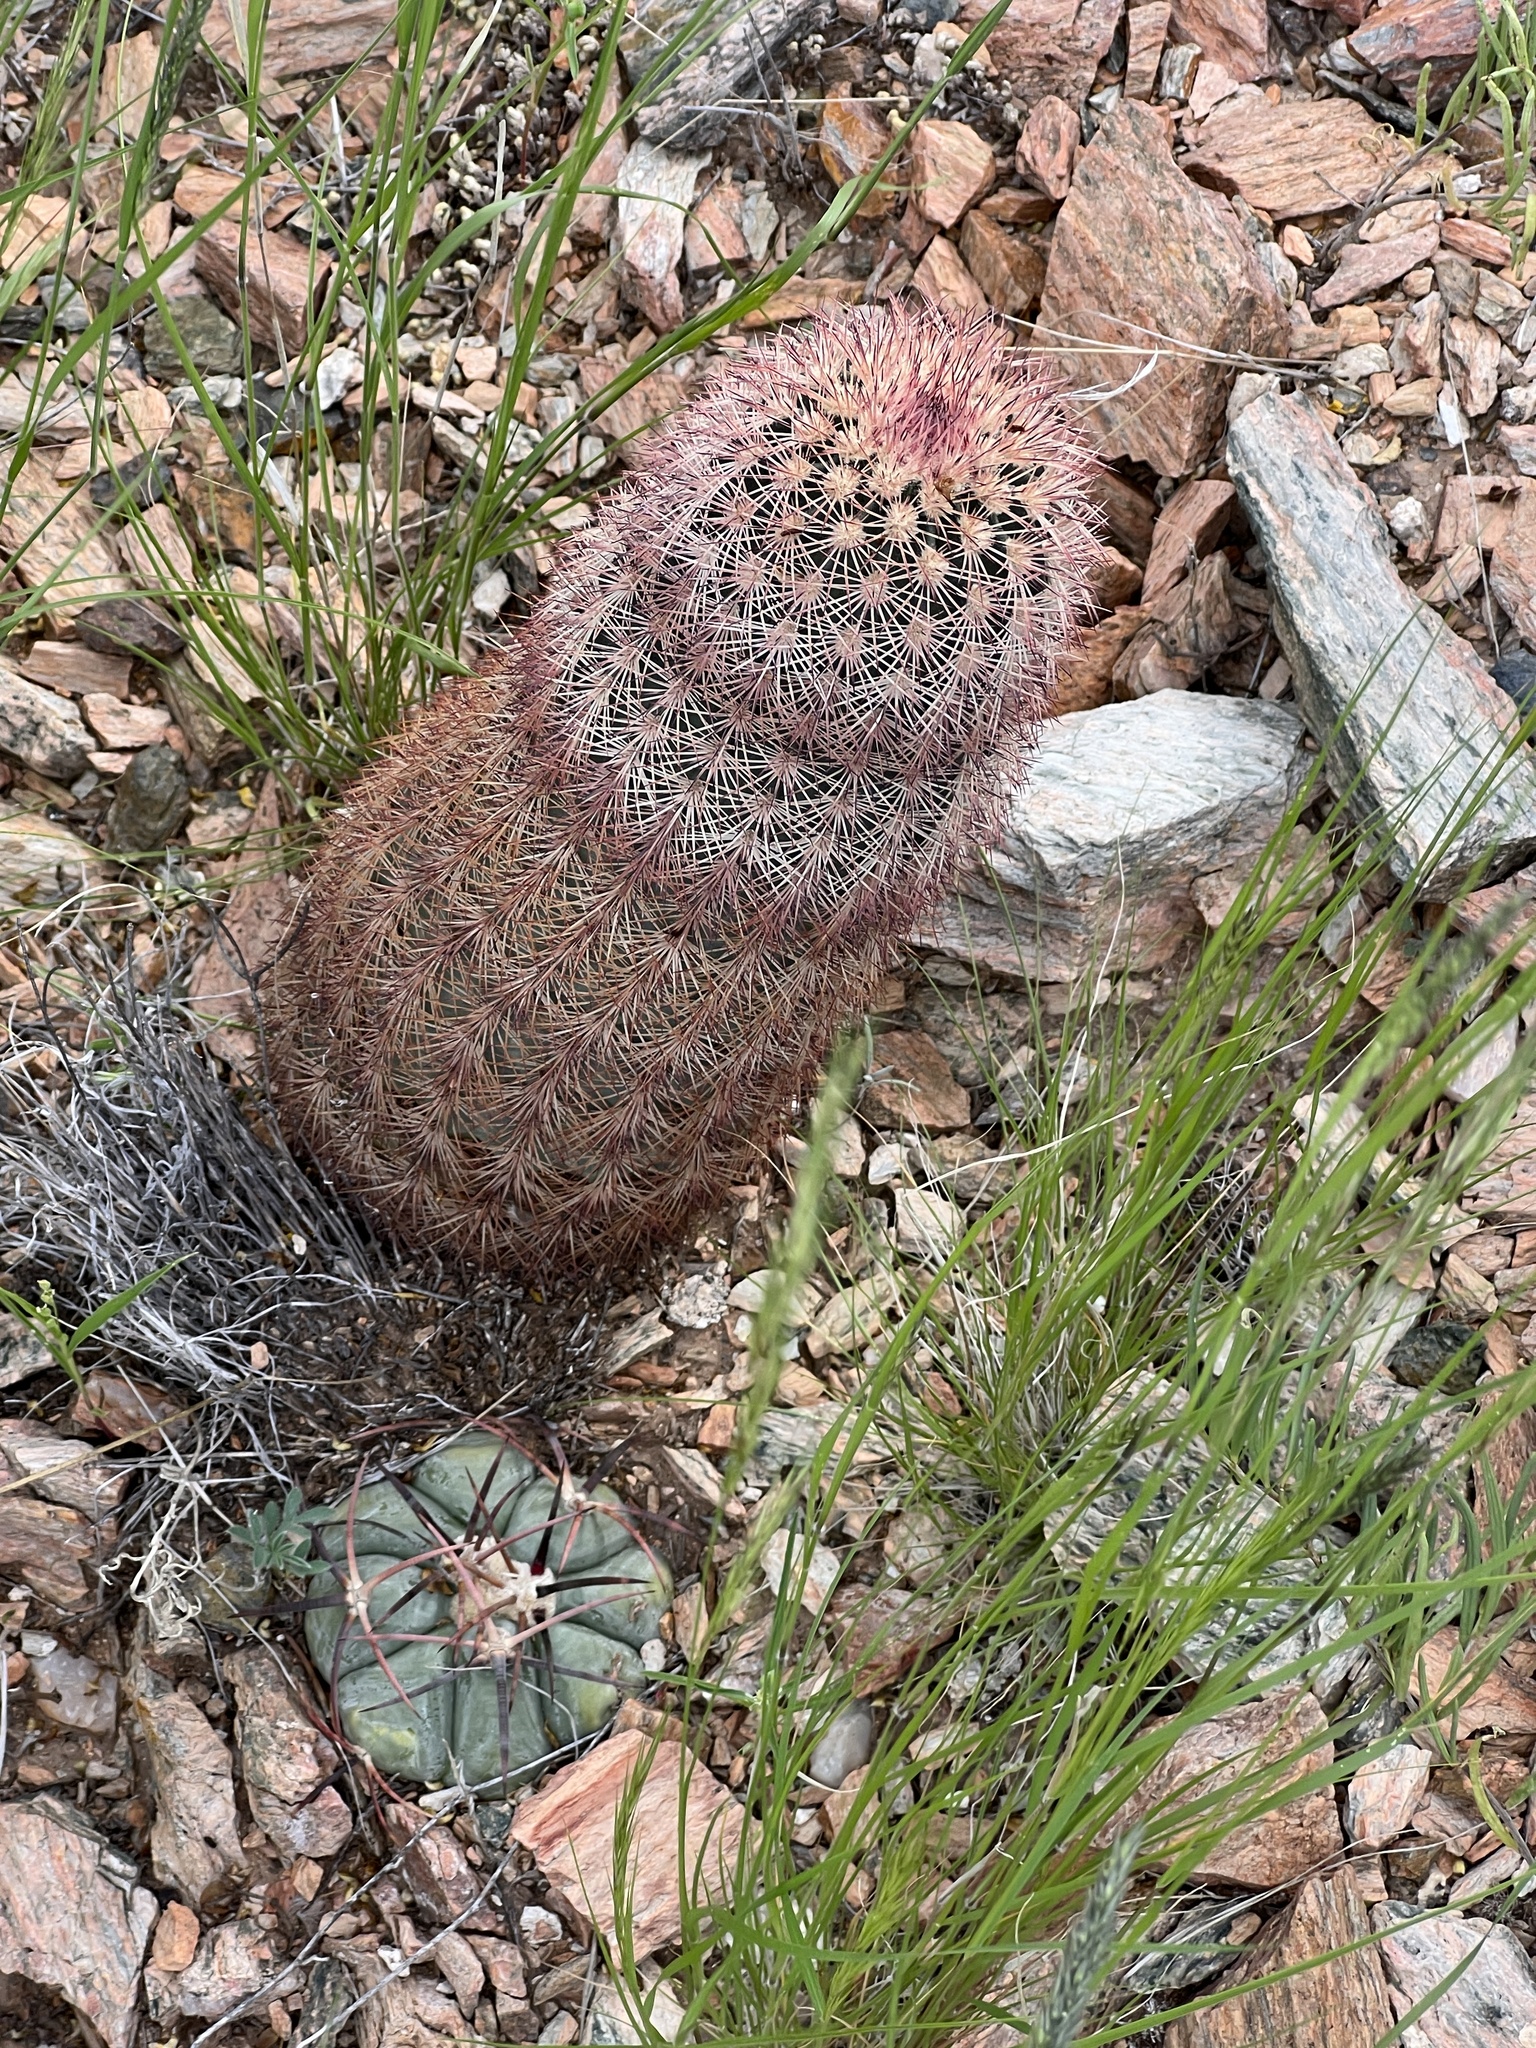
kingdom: Plantae
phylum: Tracheophyta
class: Magnoliopsida
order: Caryophyllales
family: Cactaceae
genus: Echinocereus
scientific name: Echinocereus dasyacanthus
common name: Spiny hedgehog cactus
